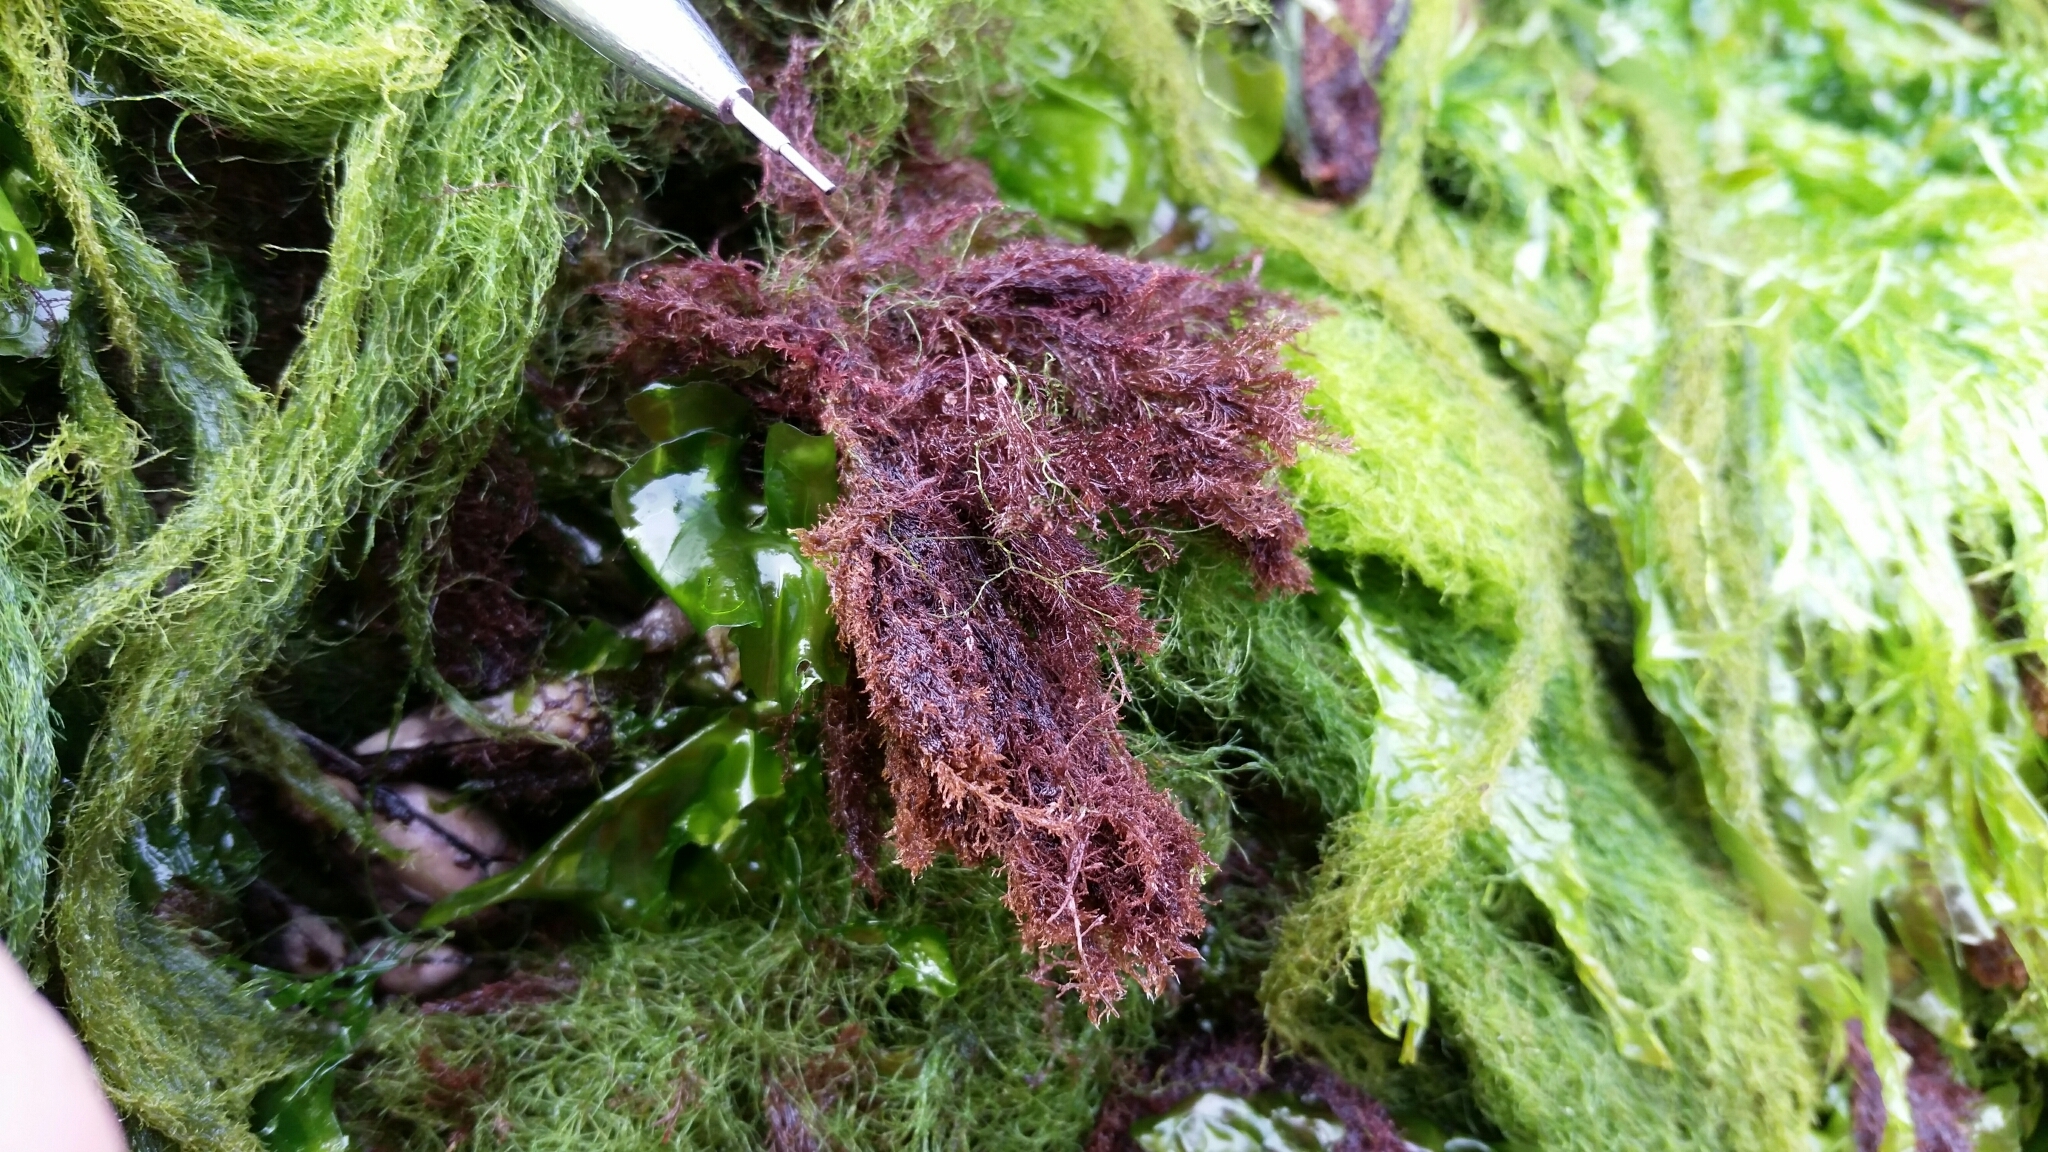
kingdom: Plantae
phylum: Rhodophyta
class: Florideophyceae
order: Ceramiales
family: Rhodomelaceae
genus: Polysiphonia
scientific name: Polysiphonia hendryi
